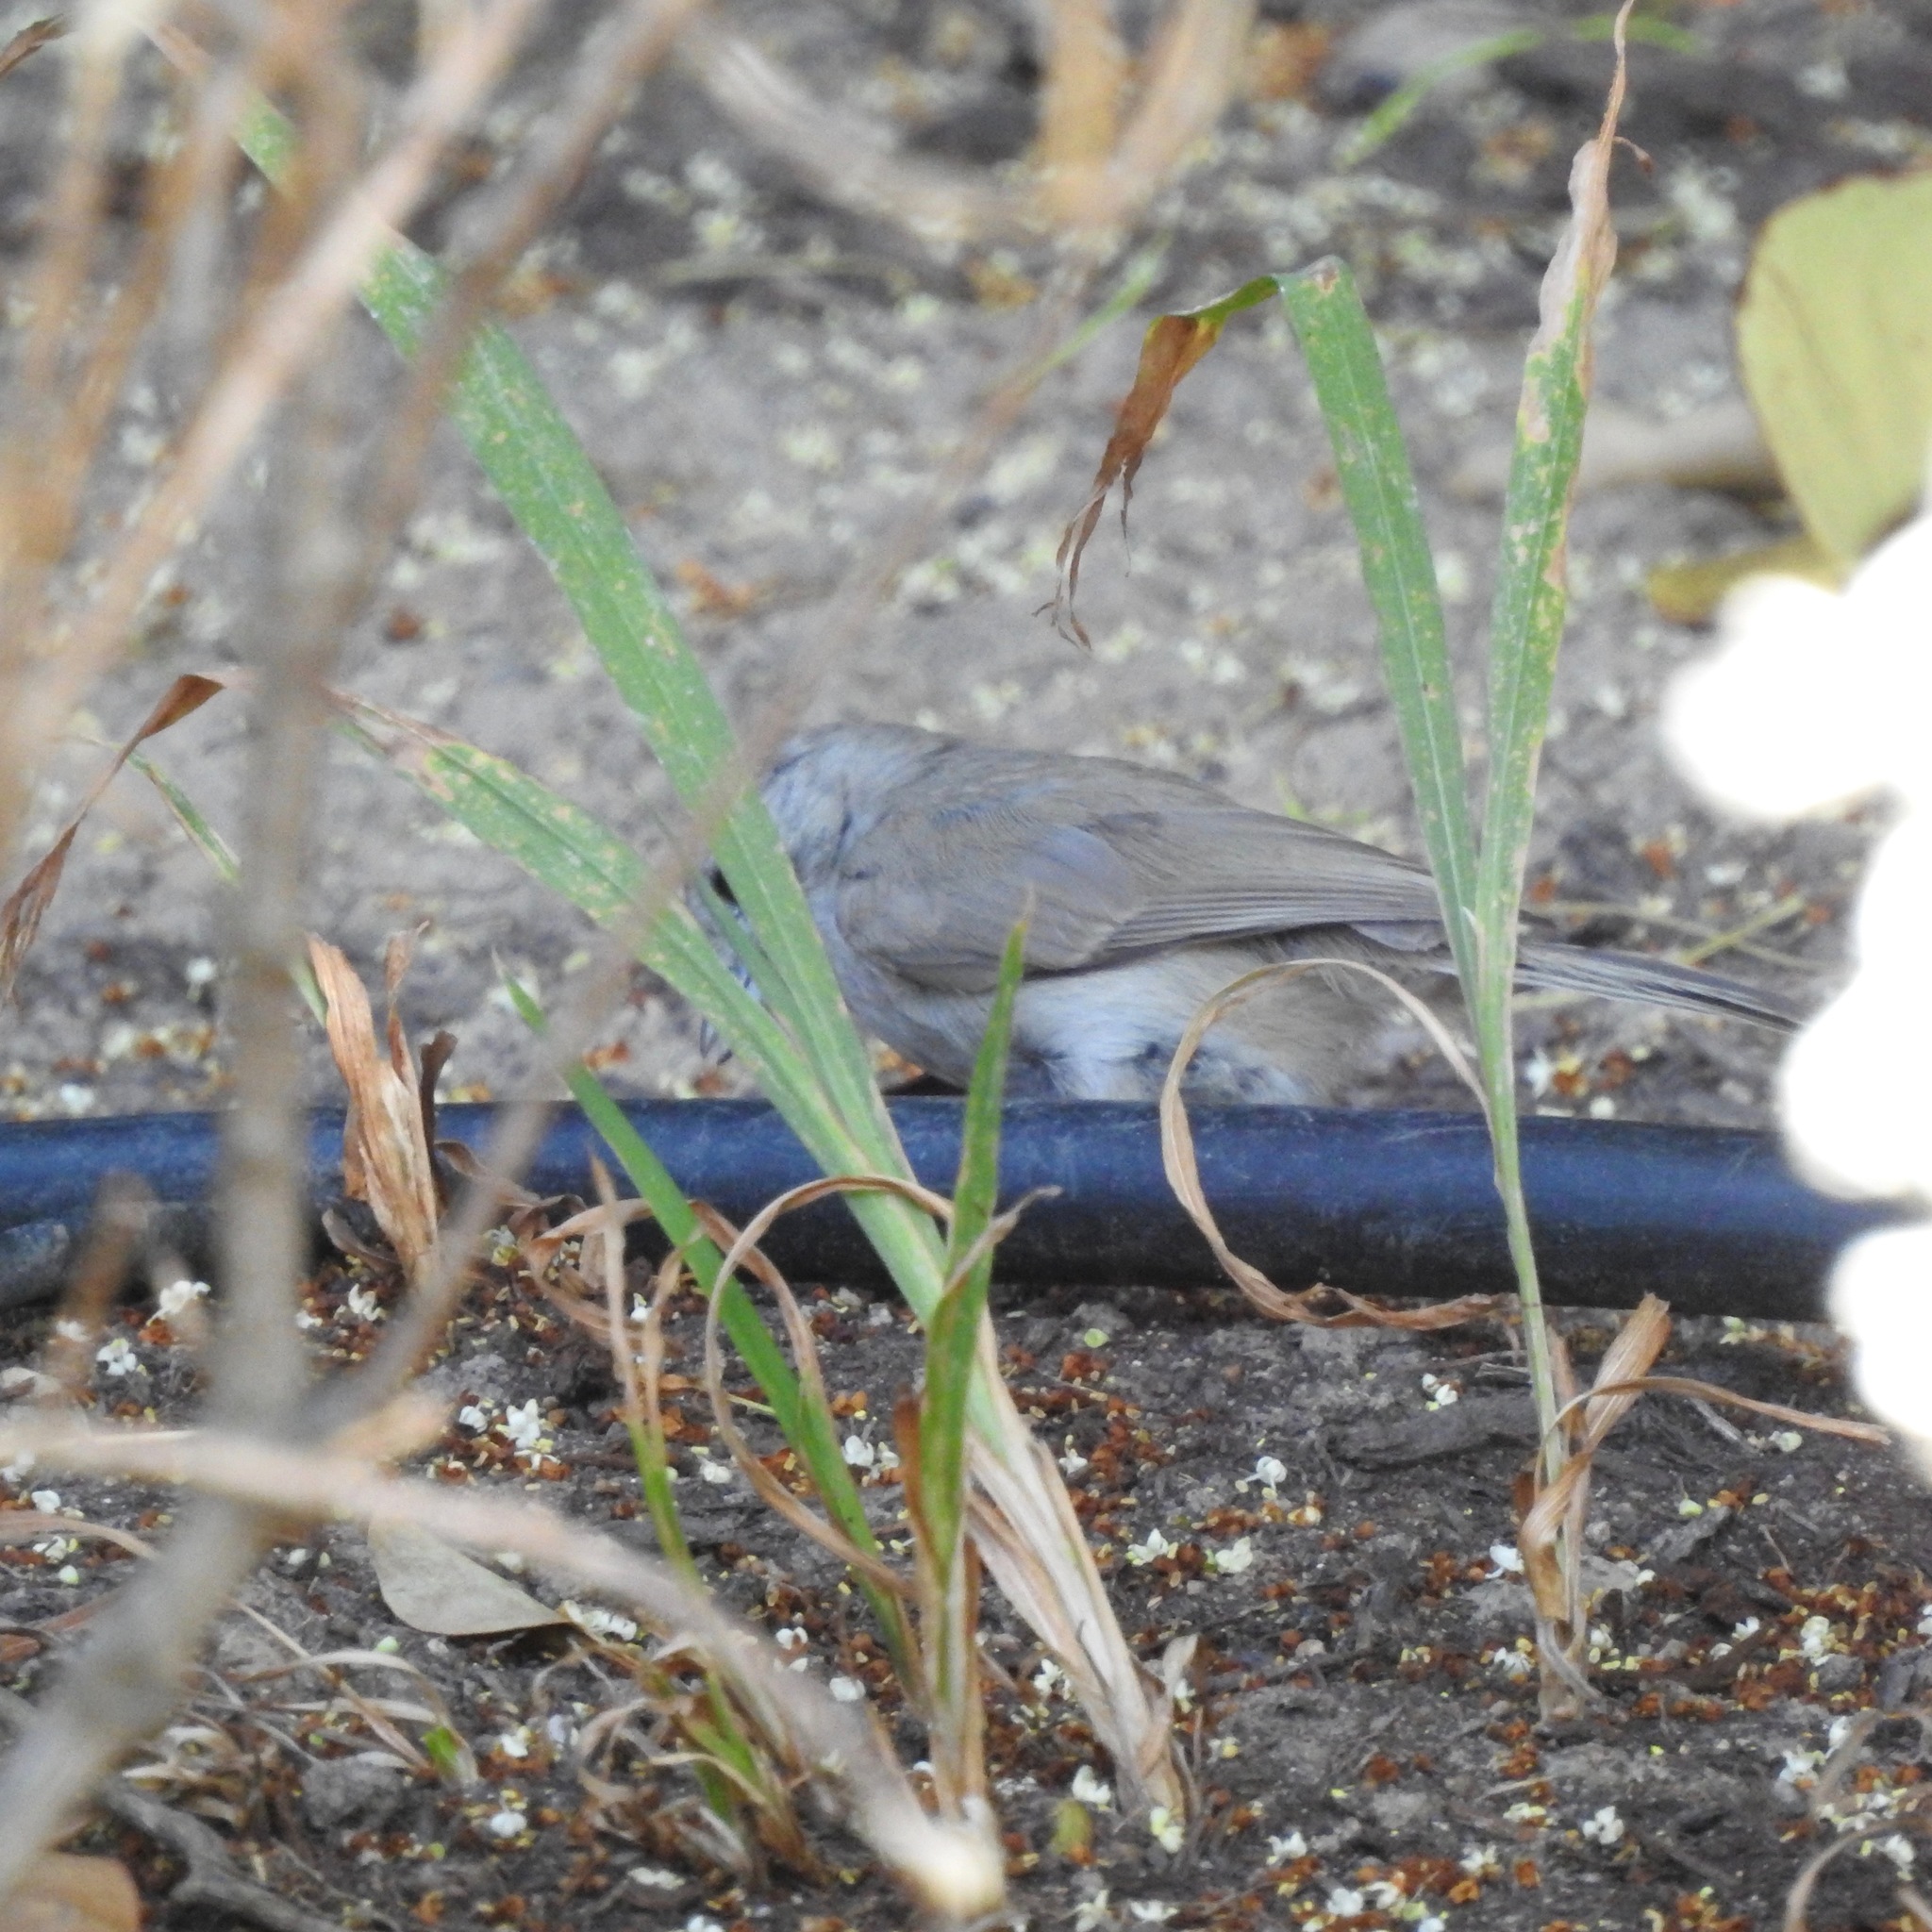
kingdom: Animalia
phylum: Chordata
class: Aves
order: Passeriformes
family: Paridae
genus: Baeolophus
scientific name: Baeolophus inornatus
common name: Oak titmouse
